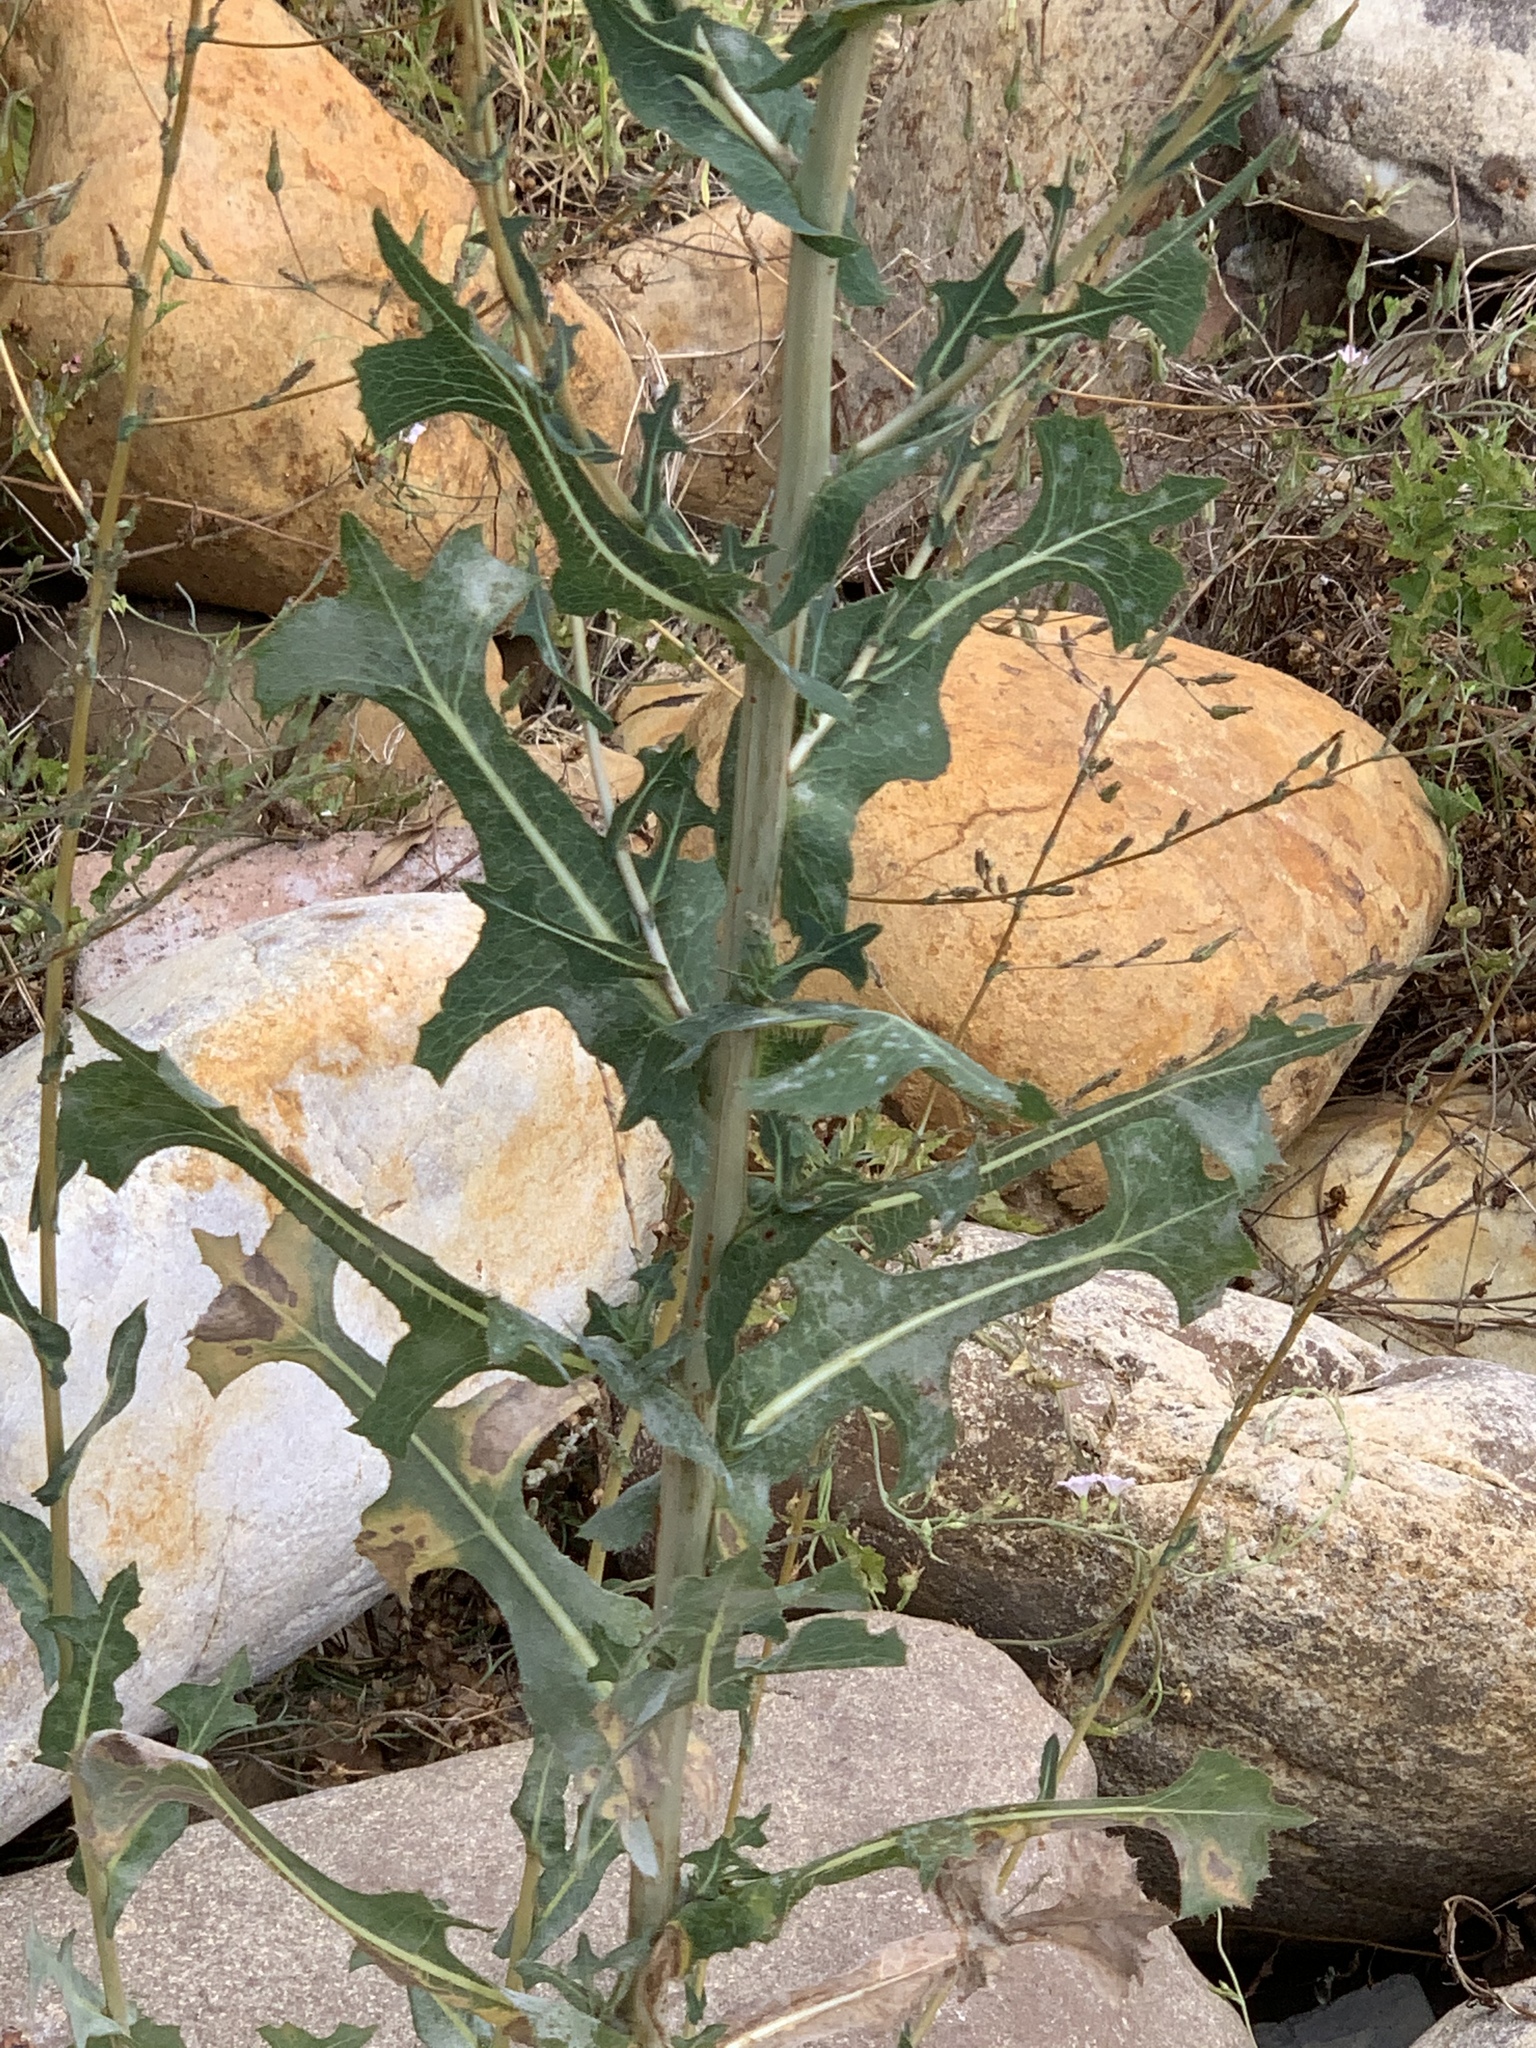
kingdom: Plantae
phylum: Tracheophyta
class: Magnoliopsida
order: Asterales
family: Asteraceae
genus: Lactuca
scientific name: Lactuca serriola
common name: Prickly lettuce
